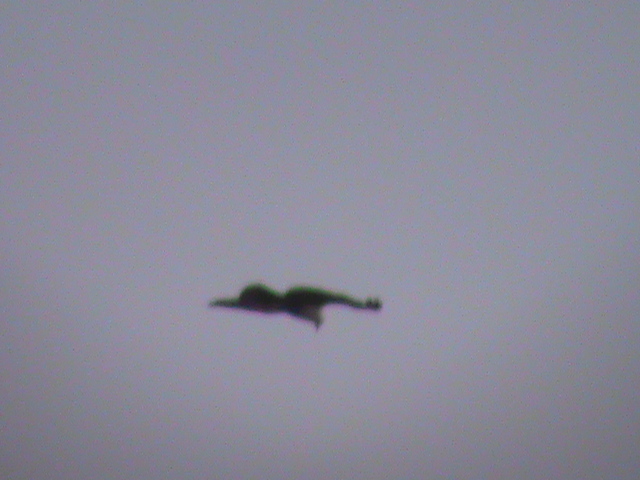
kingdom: Animalia
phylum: Chordata
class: Aves
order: Accipitriformes
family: Accipitridae
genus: Haliastur
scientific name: Haliastur indus
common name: Brahminy kite
